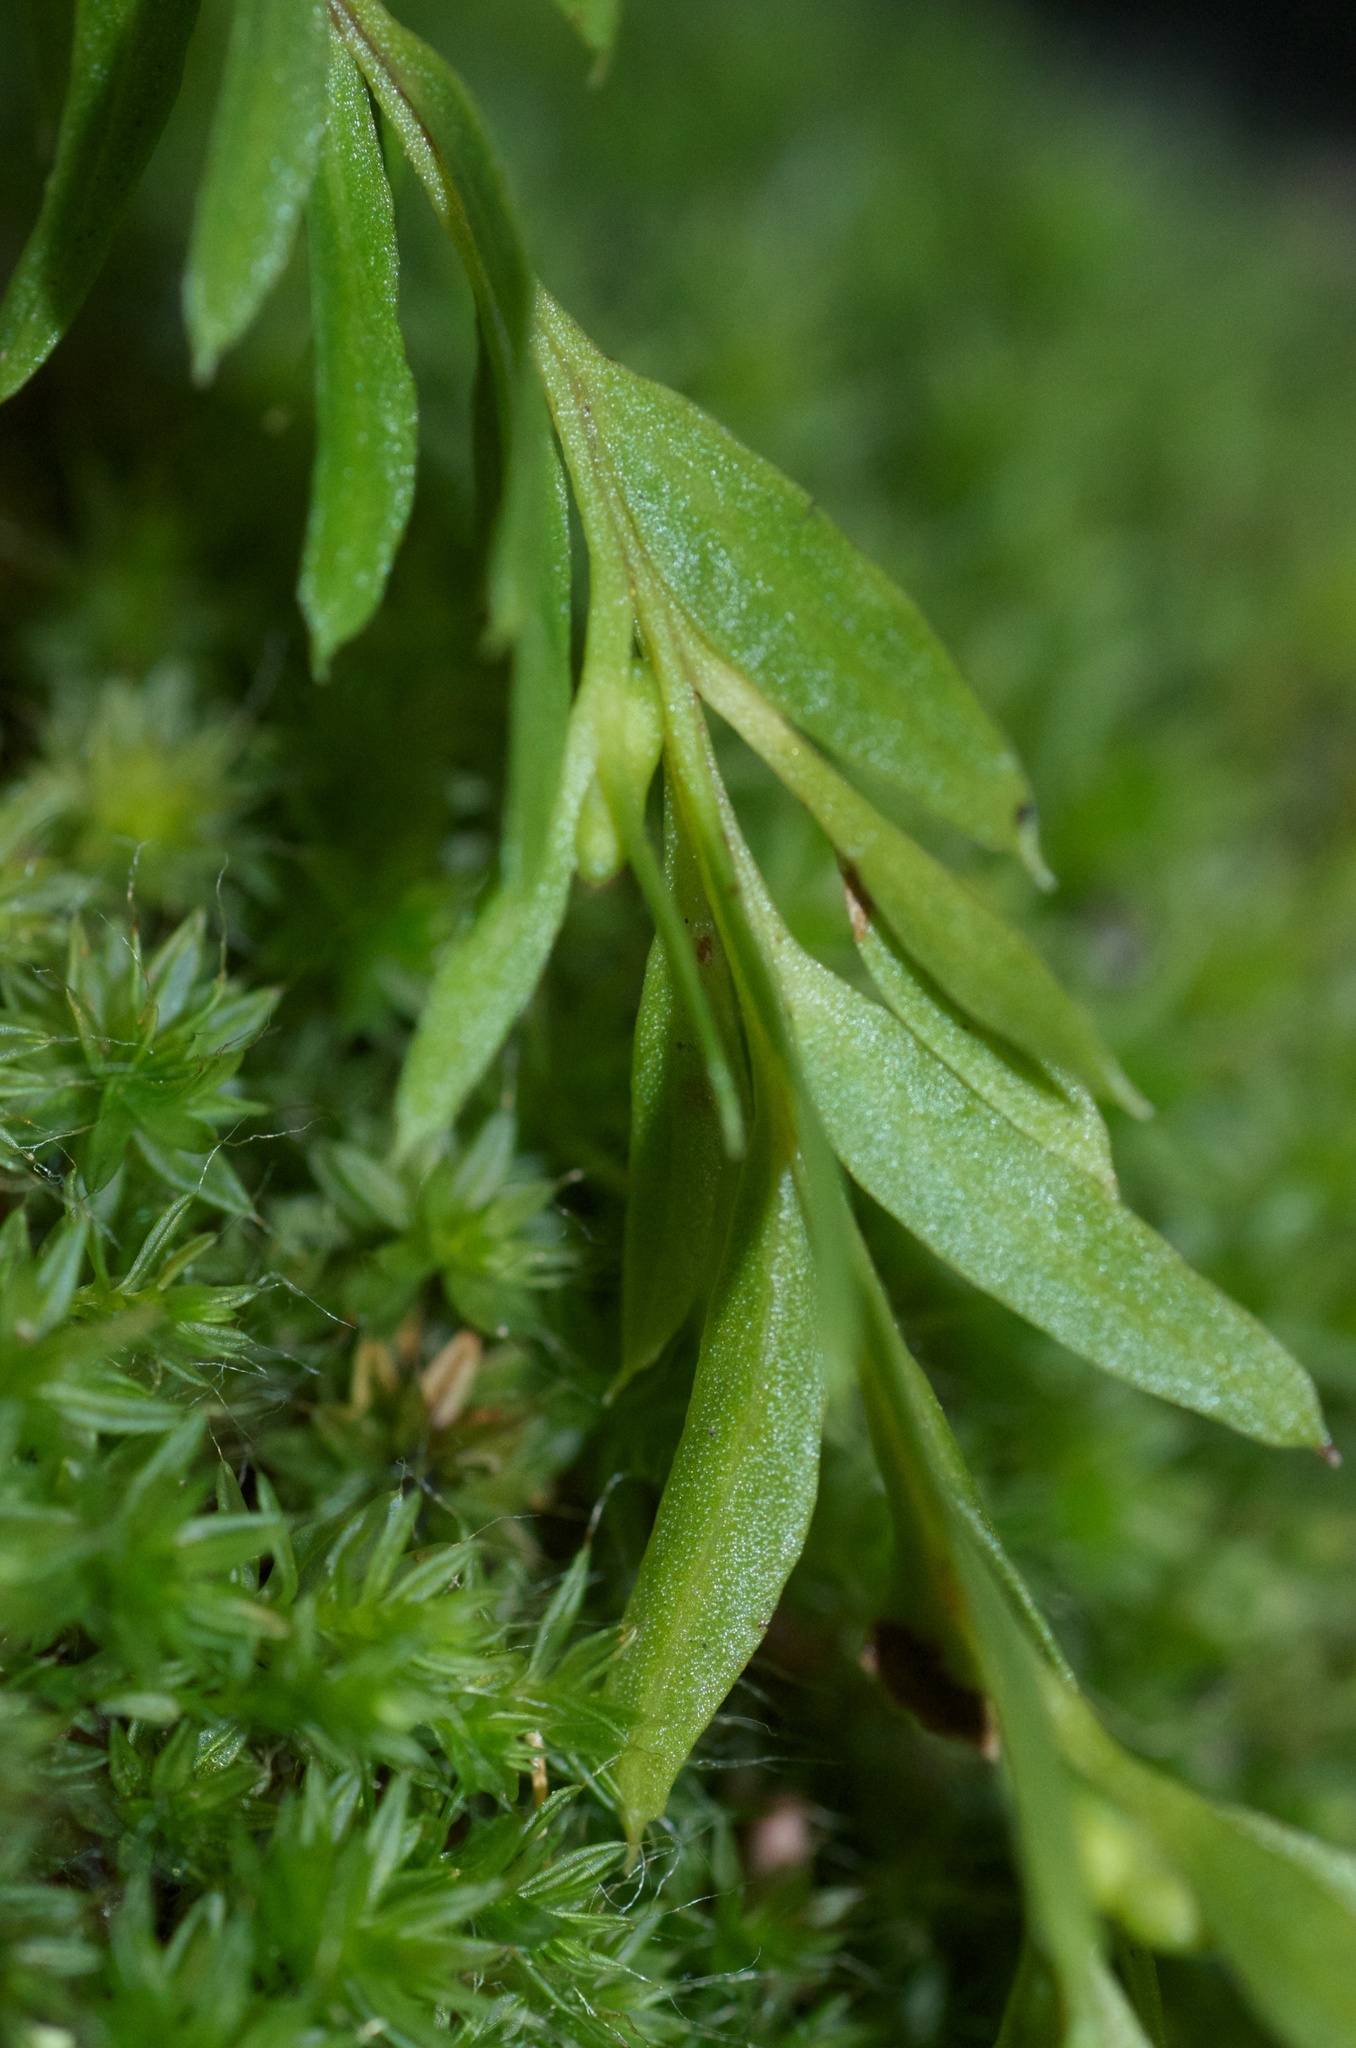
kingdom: Plantae
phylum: Tracheophyta
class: Polypodiopsida
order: Psilotales
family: Psilotaceae
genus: Tmesipteris
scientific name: Tmesipteris
